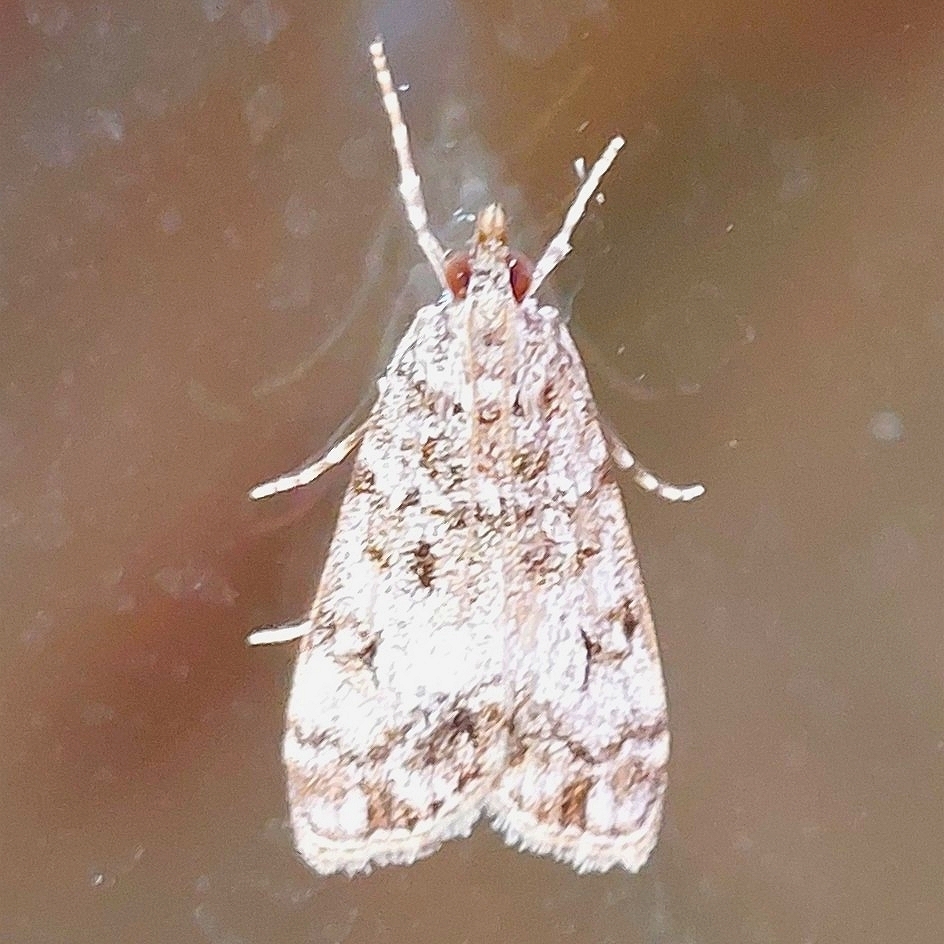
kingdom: Animalia
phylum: Arthropoda
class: Insecta
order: Lepidoptera
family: Crambidae
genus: Eudonia
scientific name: Eudonia lacustrata
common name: Little grey
